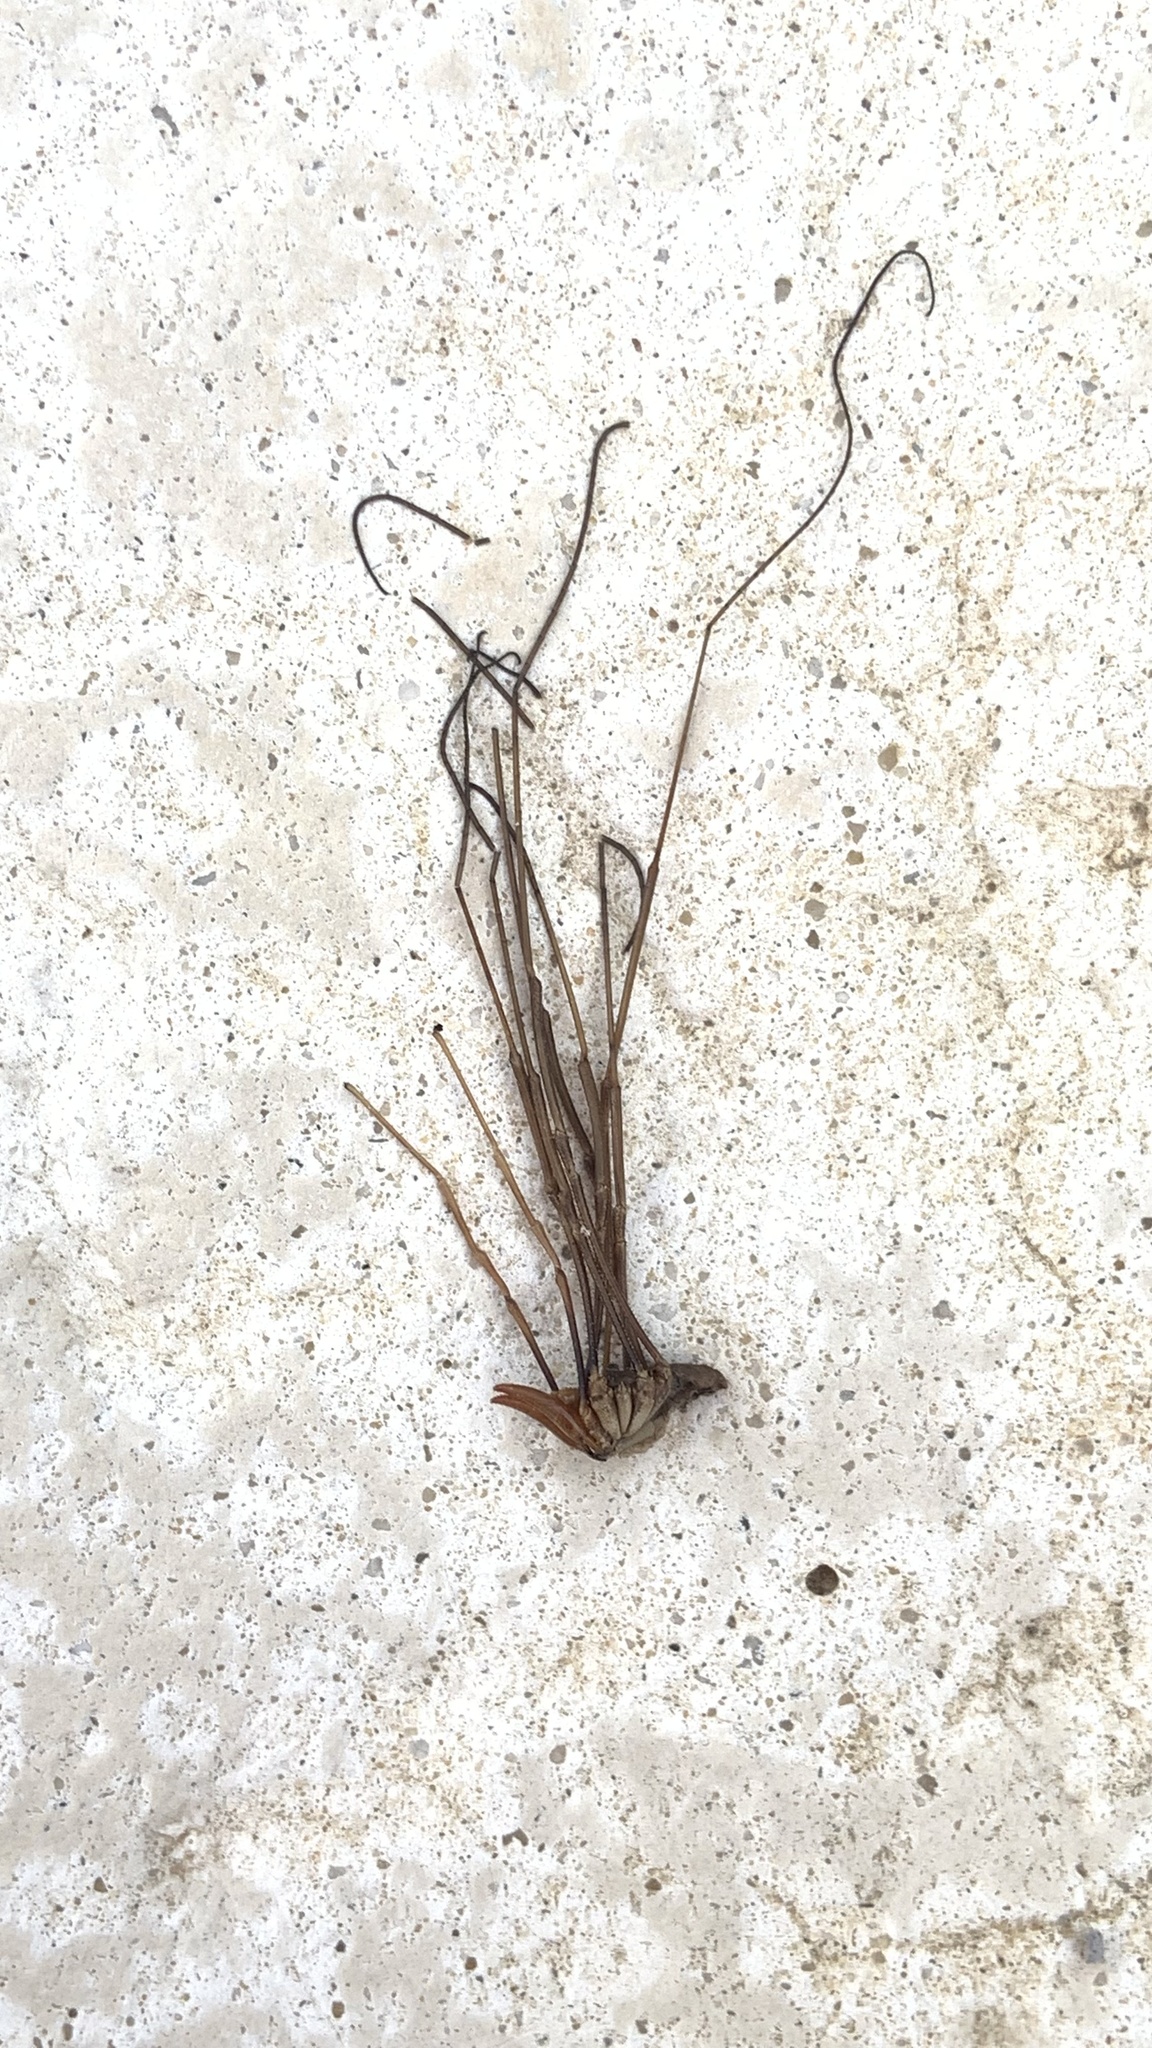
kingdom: Animalia
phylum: Arthropoda
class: Arachnida
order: Opiliones
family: Phalangiidae
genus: Phalangium
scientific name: Phalangium opilio
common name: Daddy longleg
